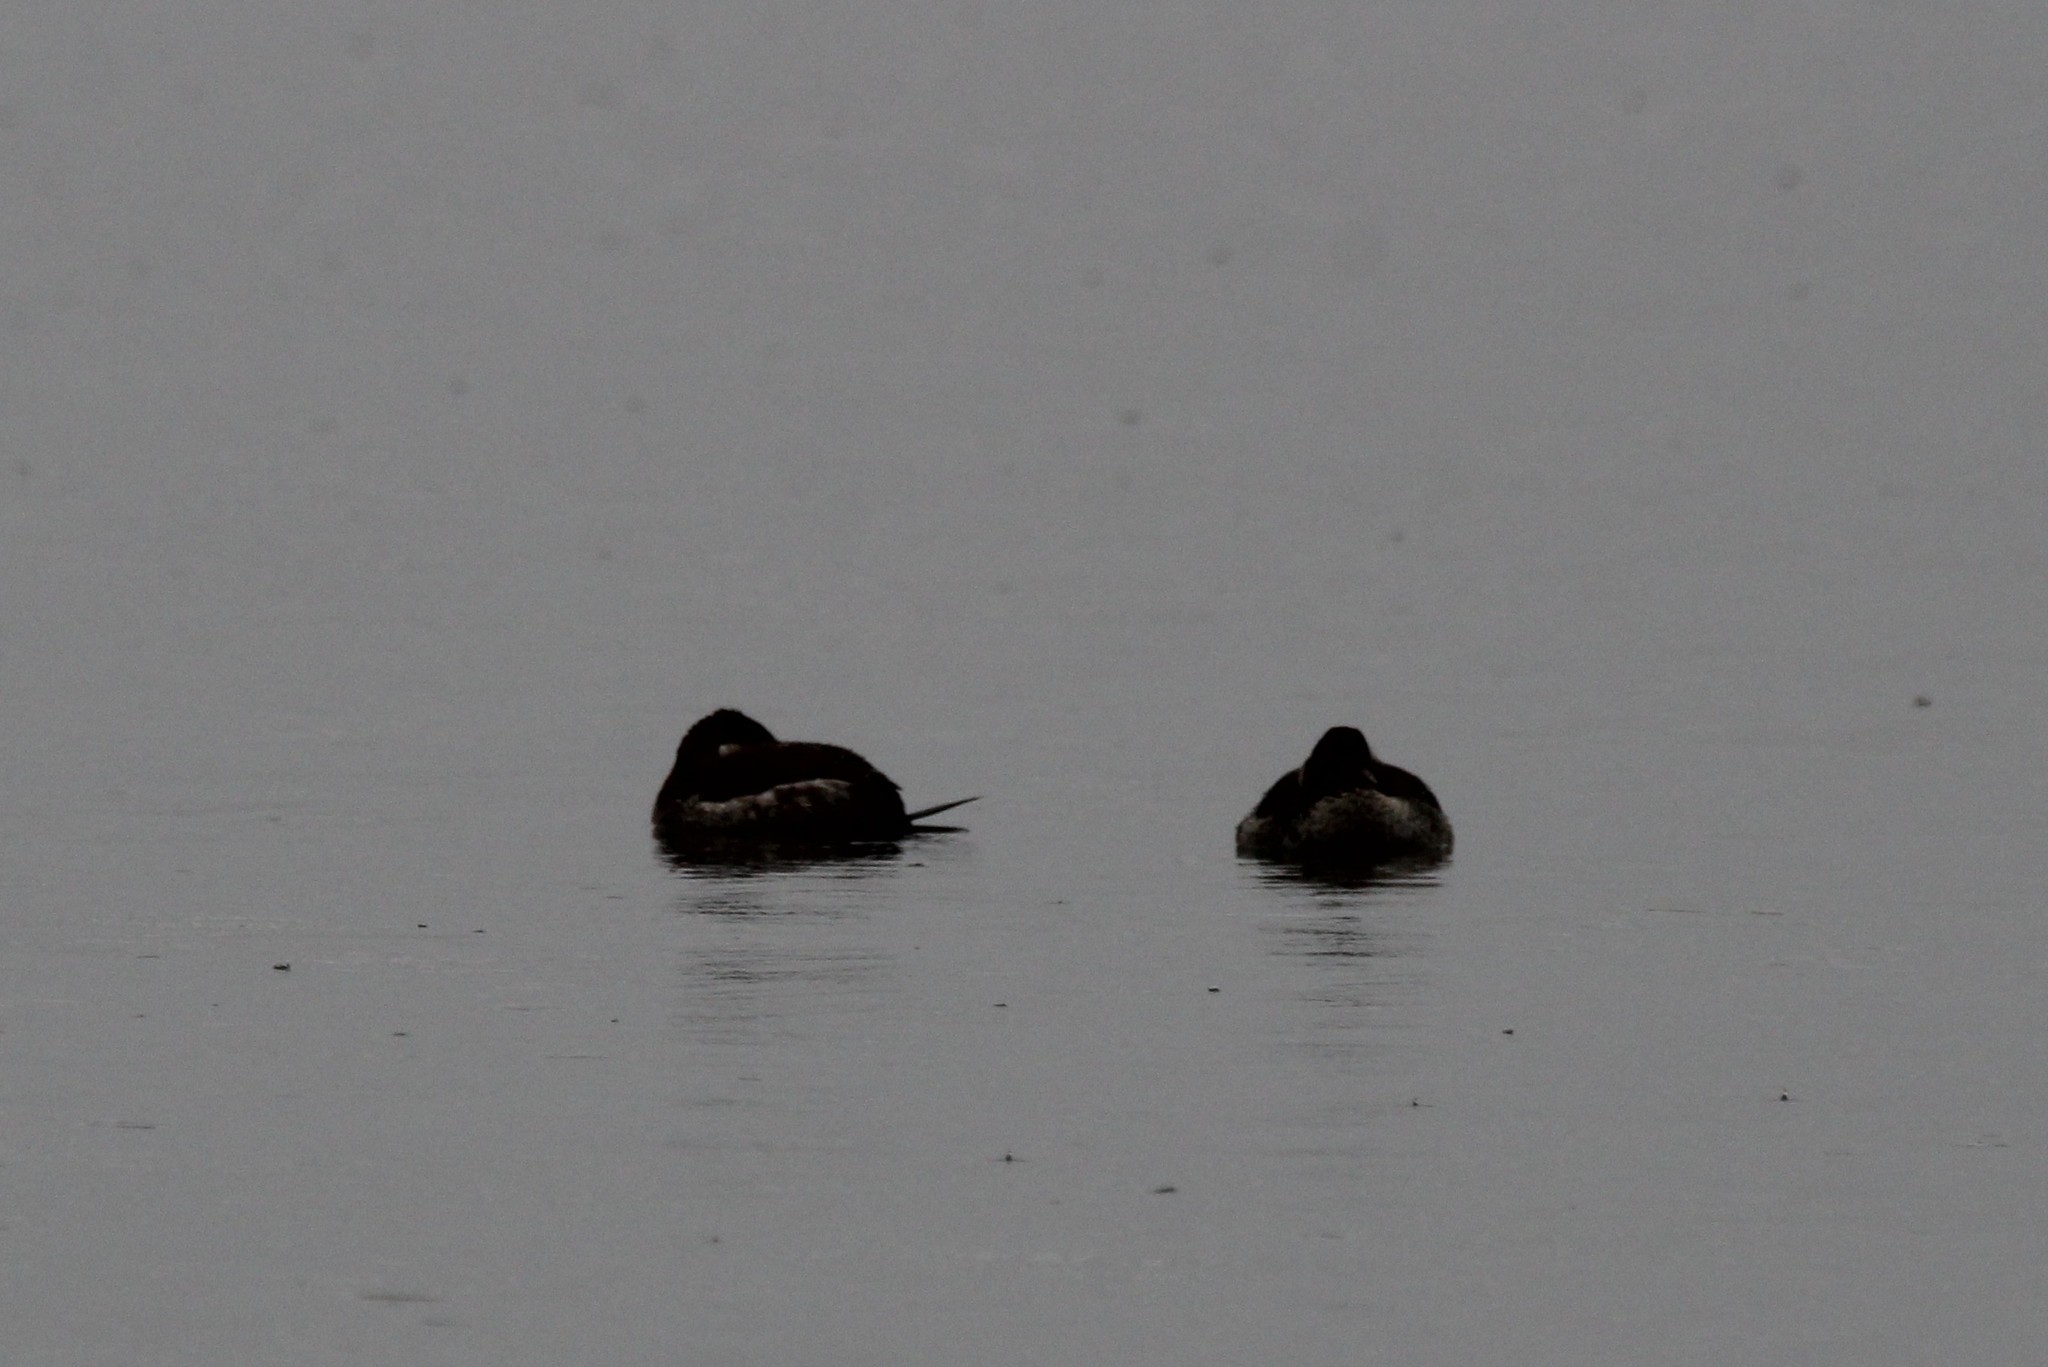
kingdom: Animalia
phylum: Chordata
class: Aves
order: Anseriformes
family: Anatidae
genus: Oxyura
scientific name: Oxyura jamaicensis
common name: Ruddy duck
